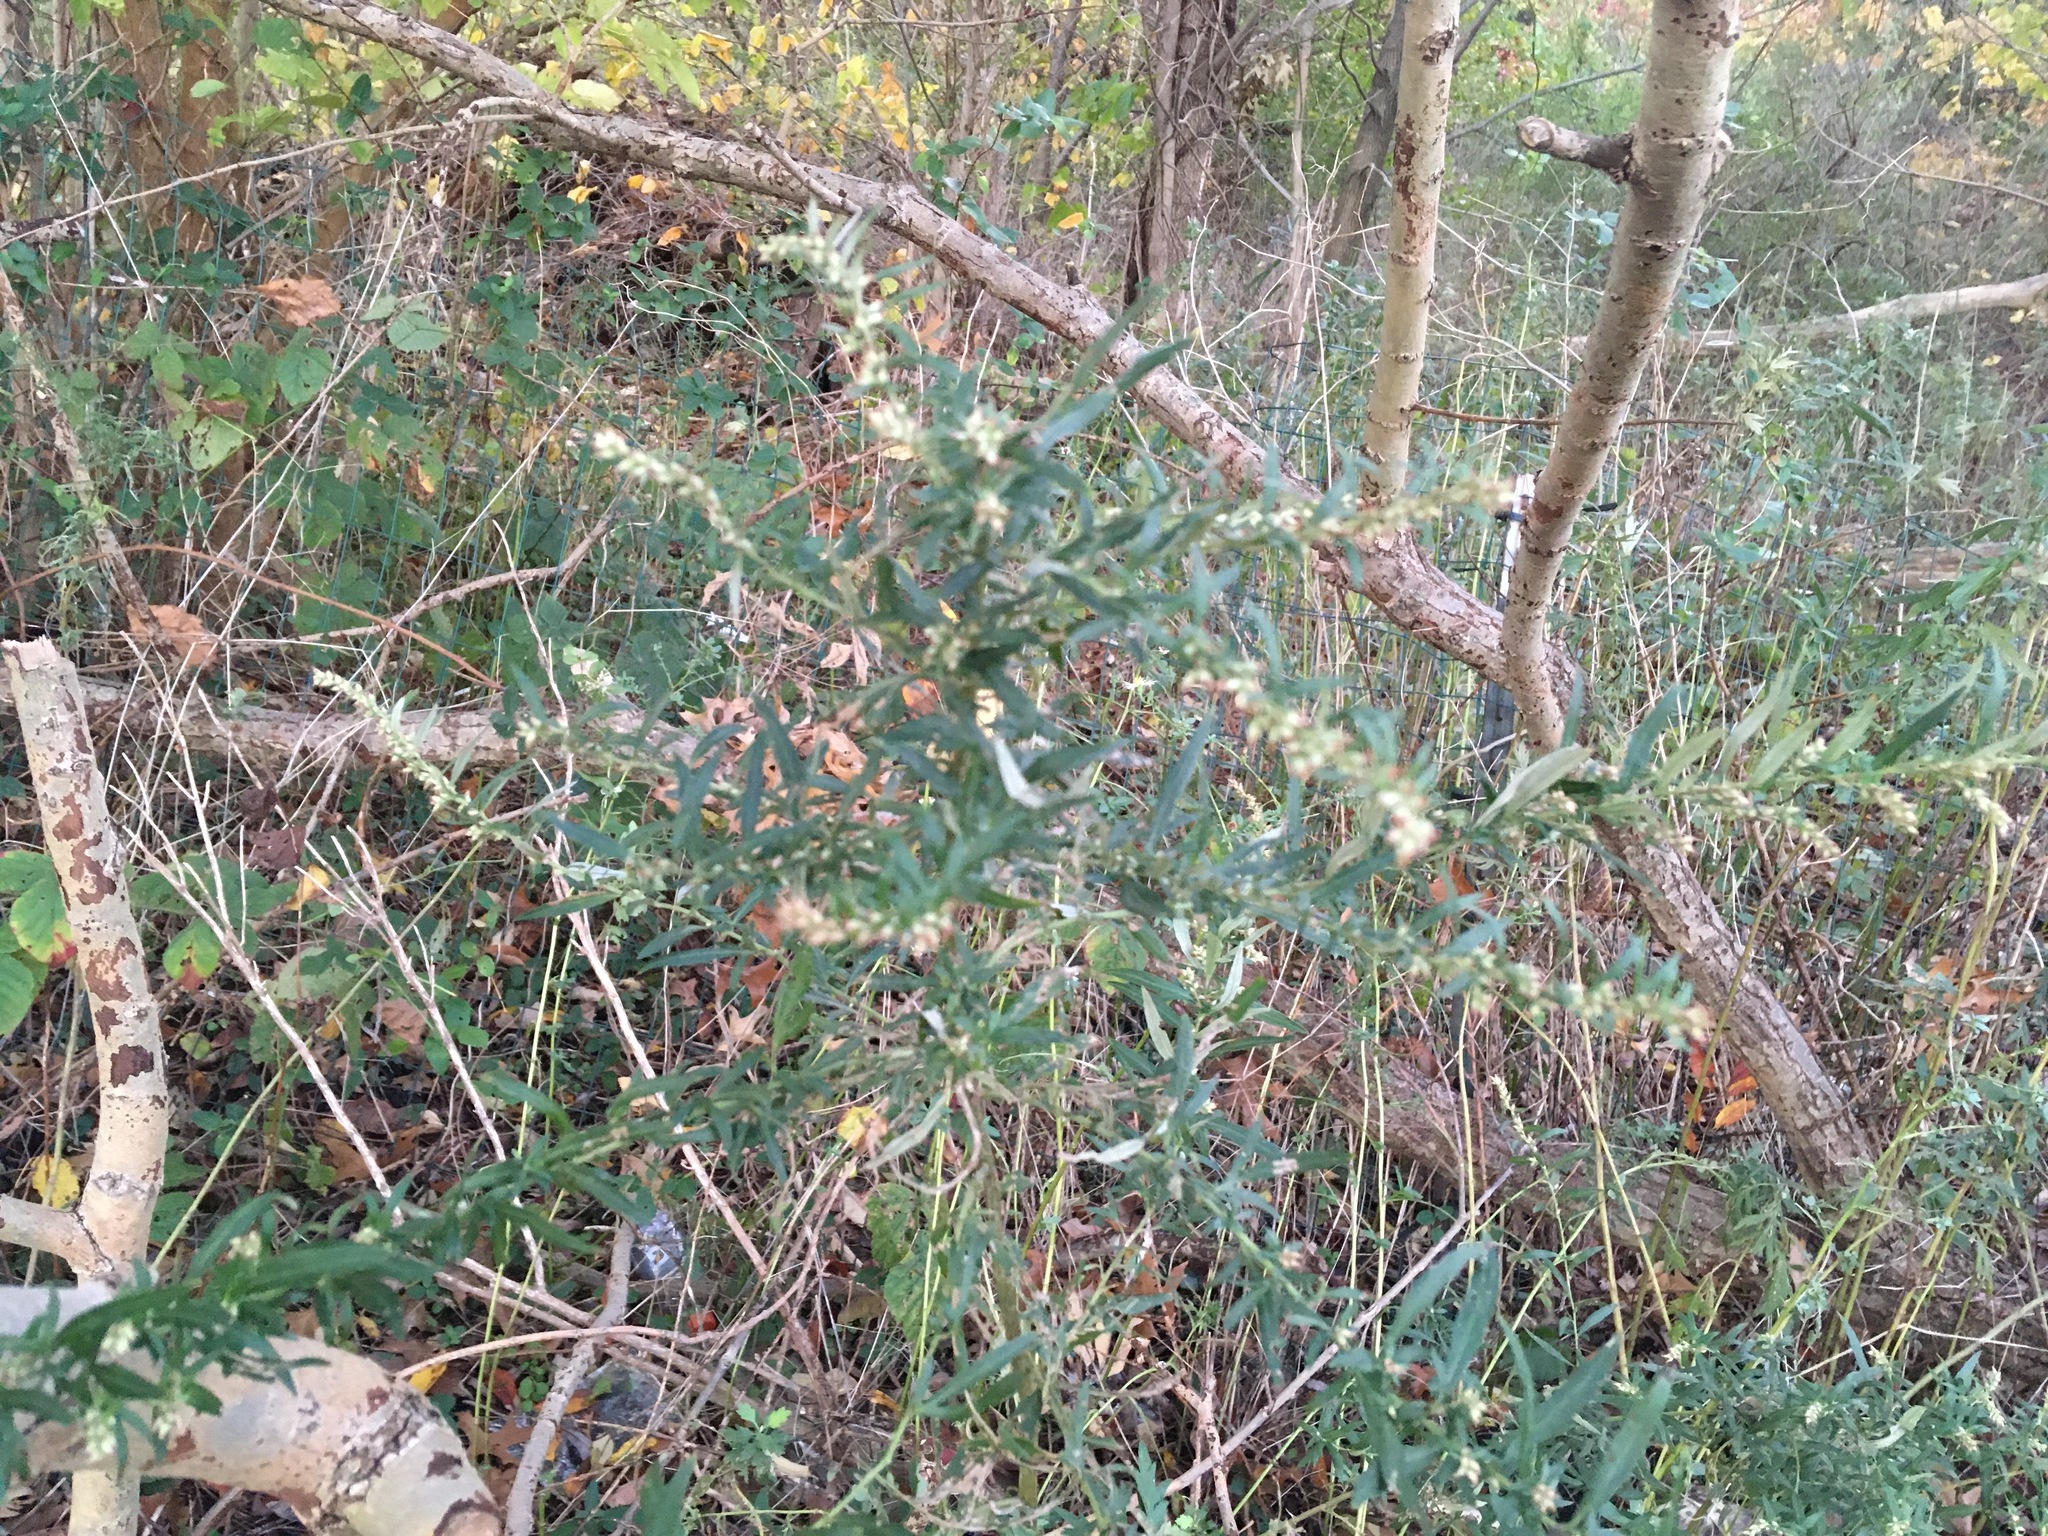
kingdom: Plantae
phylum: Tracheophyta
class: Magnoliopsida
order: Asterales
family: Asteraceae
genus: Artemisia
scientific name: Artemisia vulgaris
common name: Mugwort
